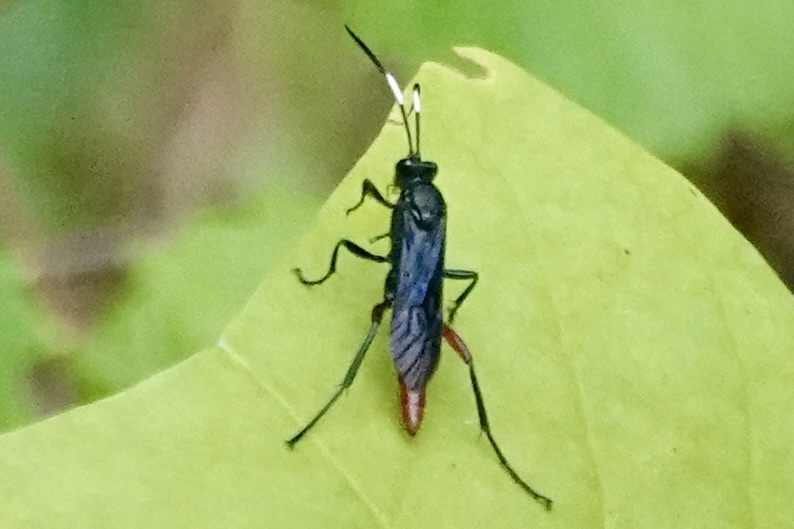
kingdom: Animalia
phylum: Arthropoda
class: Insecta
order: Hymenoptera
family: Ichneumonidae
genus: Limonethe
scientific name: Limonethe maurator
